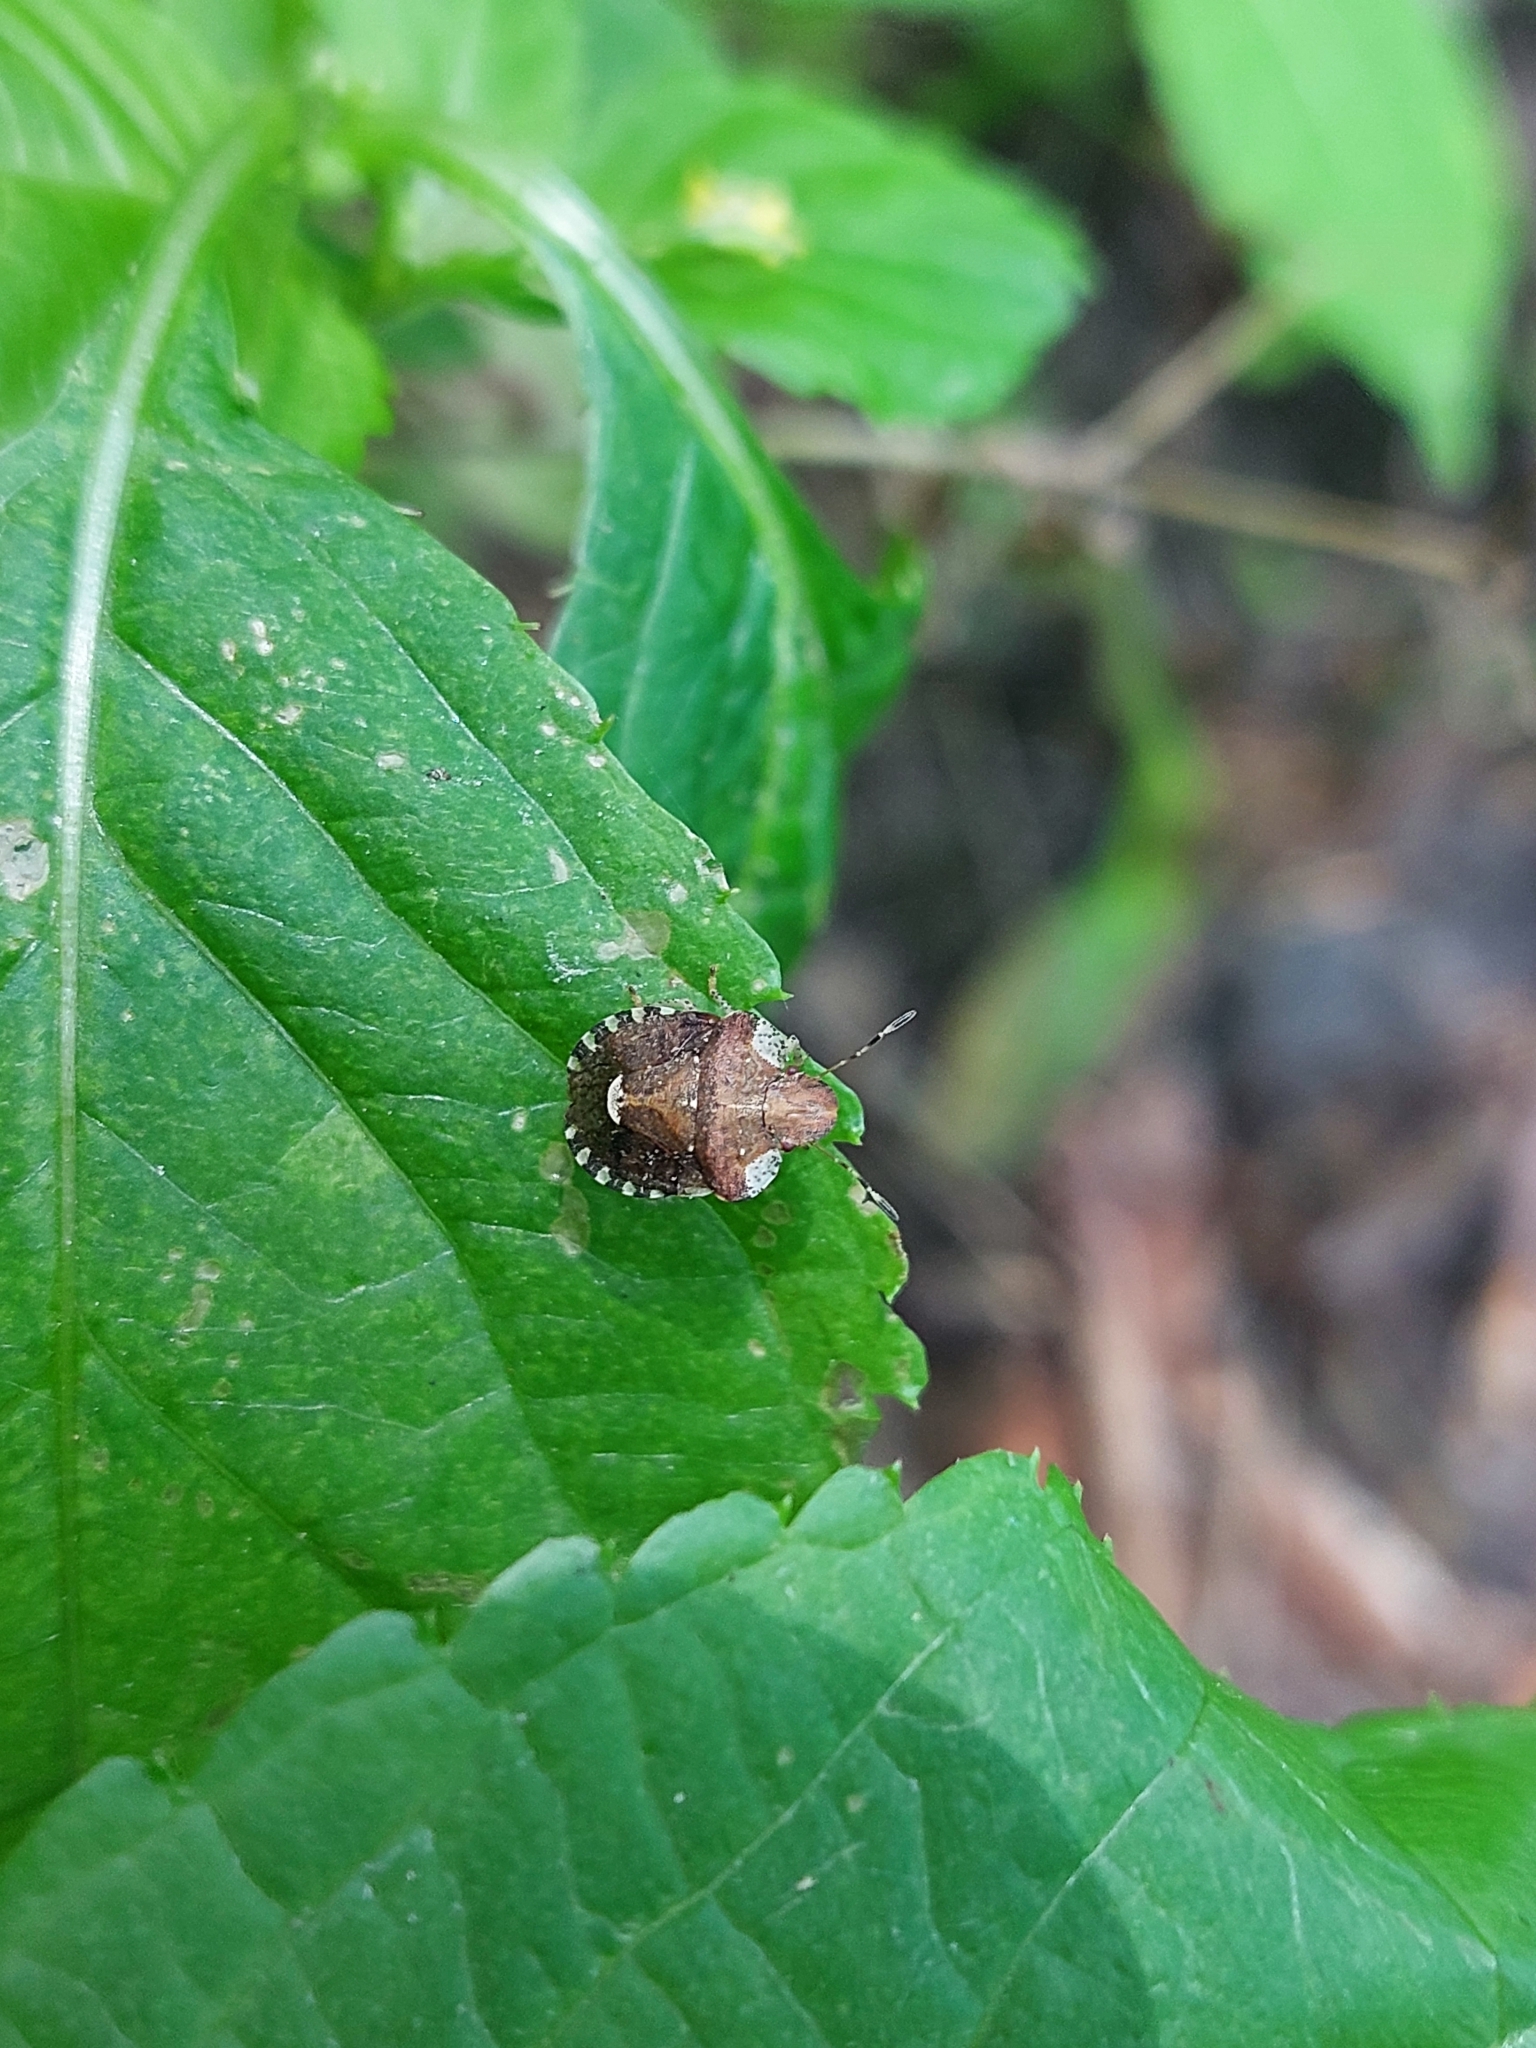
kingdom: Animalia
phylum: Arthropoda
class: Insecta
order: Hemiptera
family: Pentatomidae
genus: Dyroderes
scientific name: Dyroderes umbraculatus
